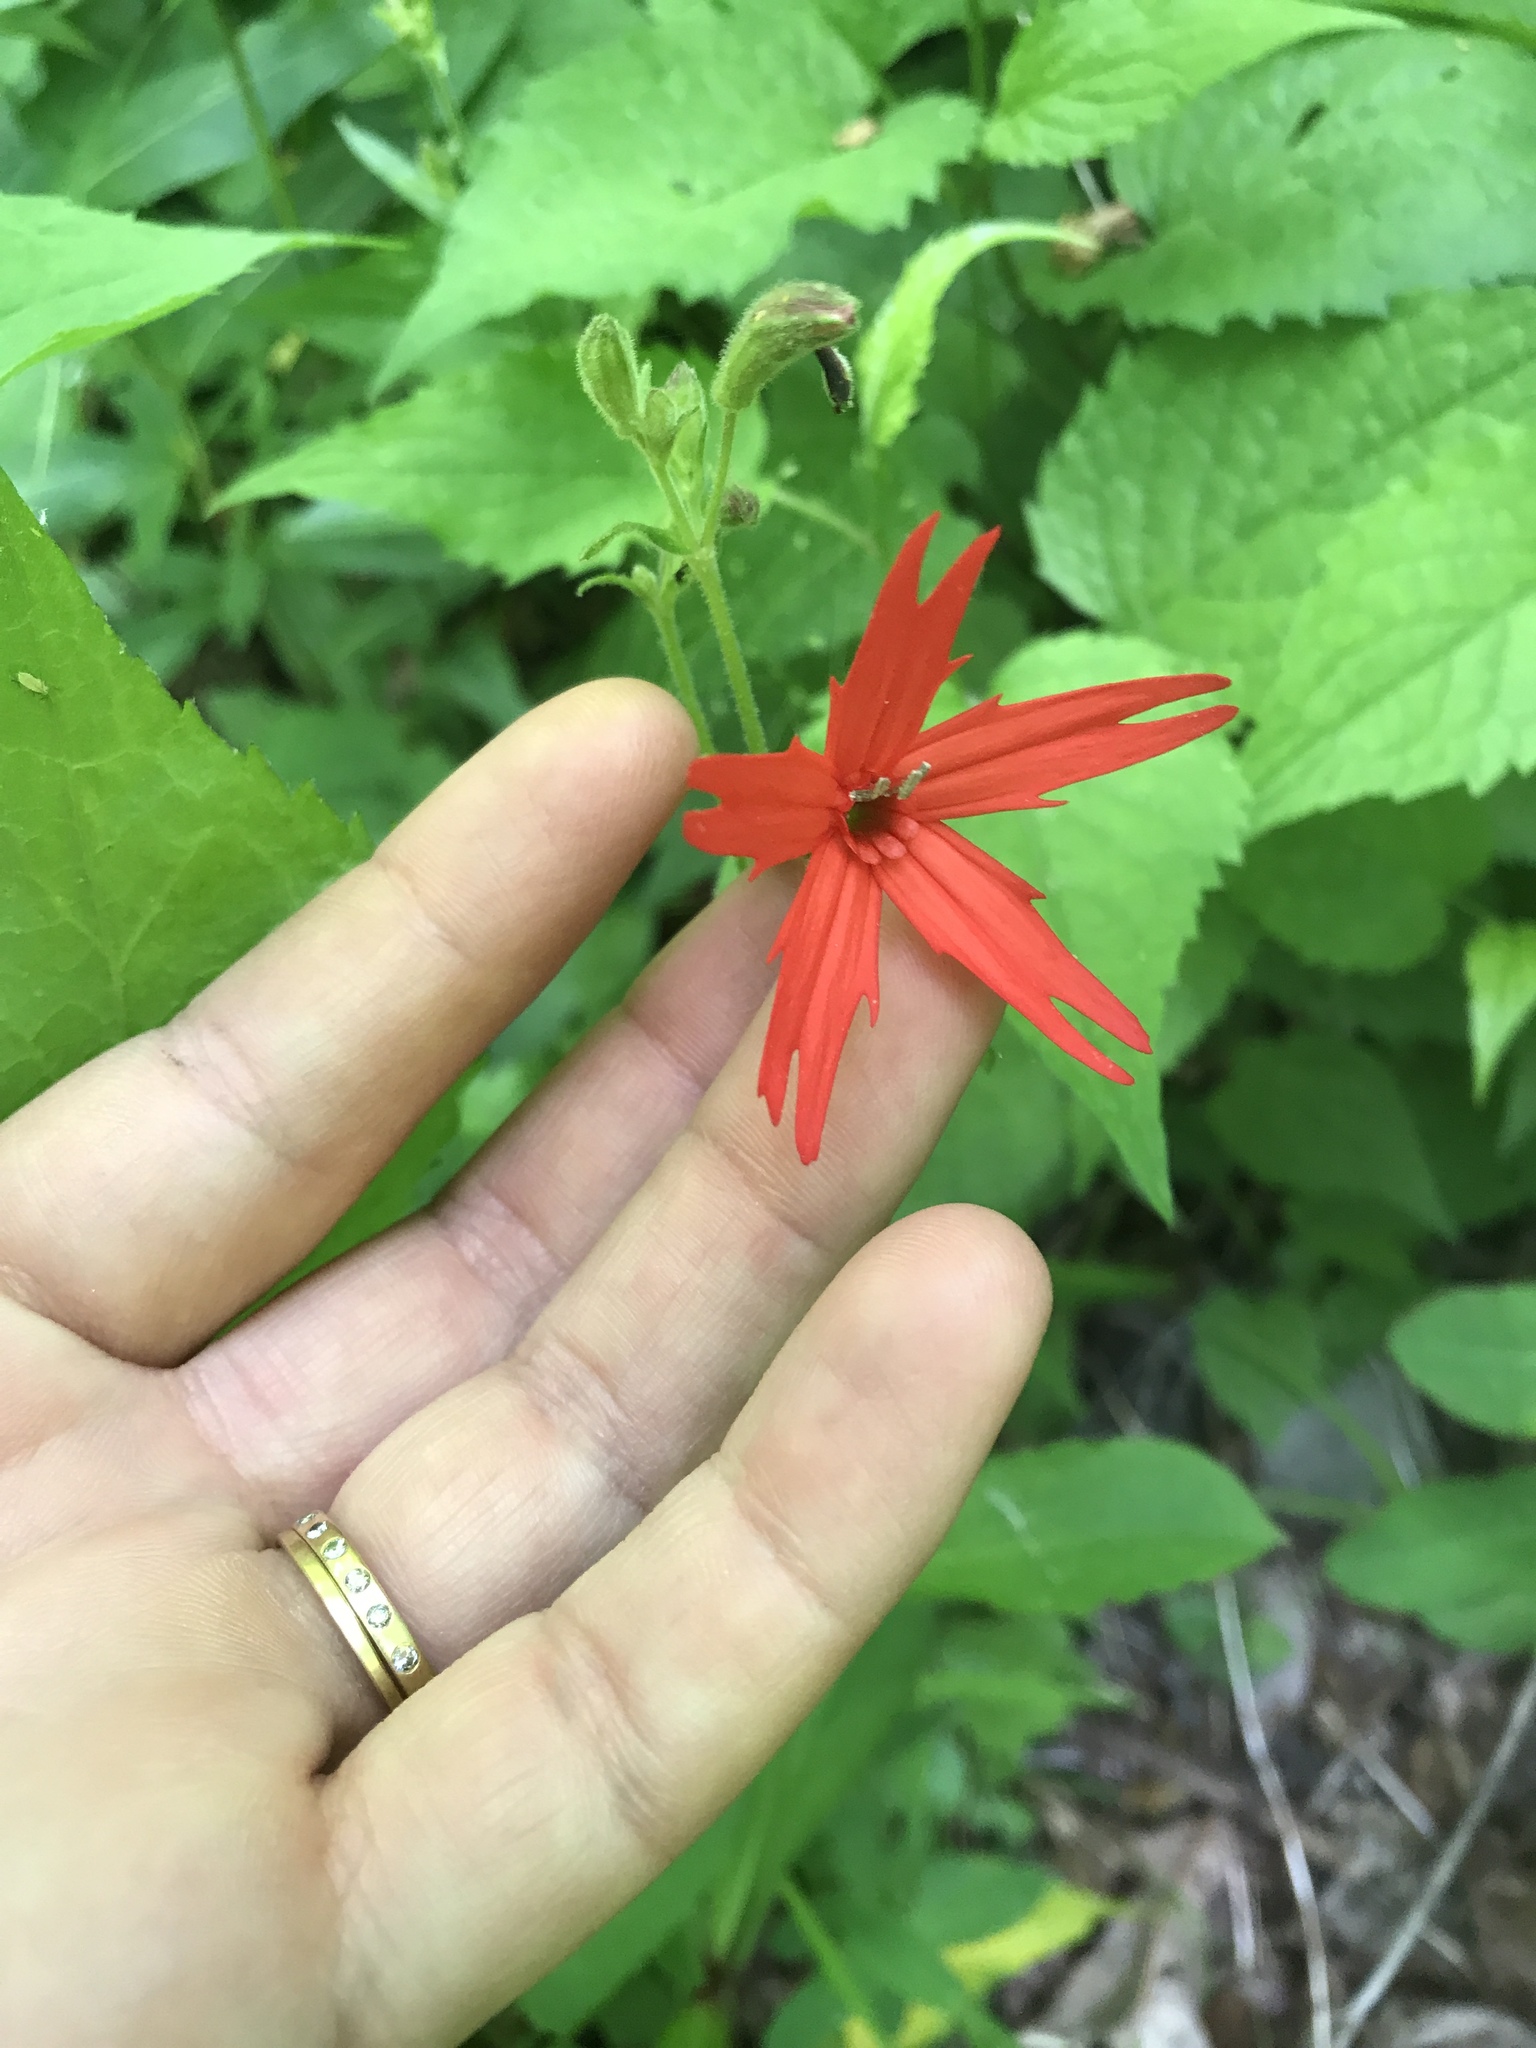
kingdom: Plantae
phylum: Tracheophyta
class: Magnoliopsida
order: Caryophyllales
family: Caryophyllaceae
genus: Silene
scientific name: Silene virginica
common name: Fire-pink
